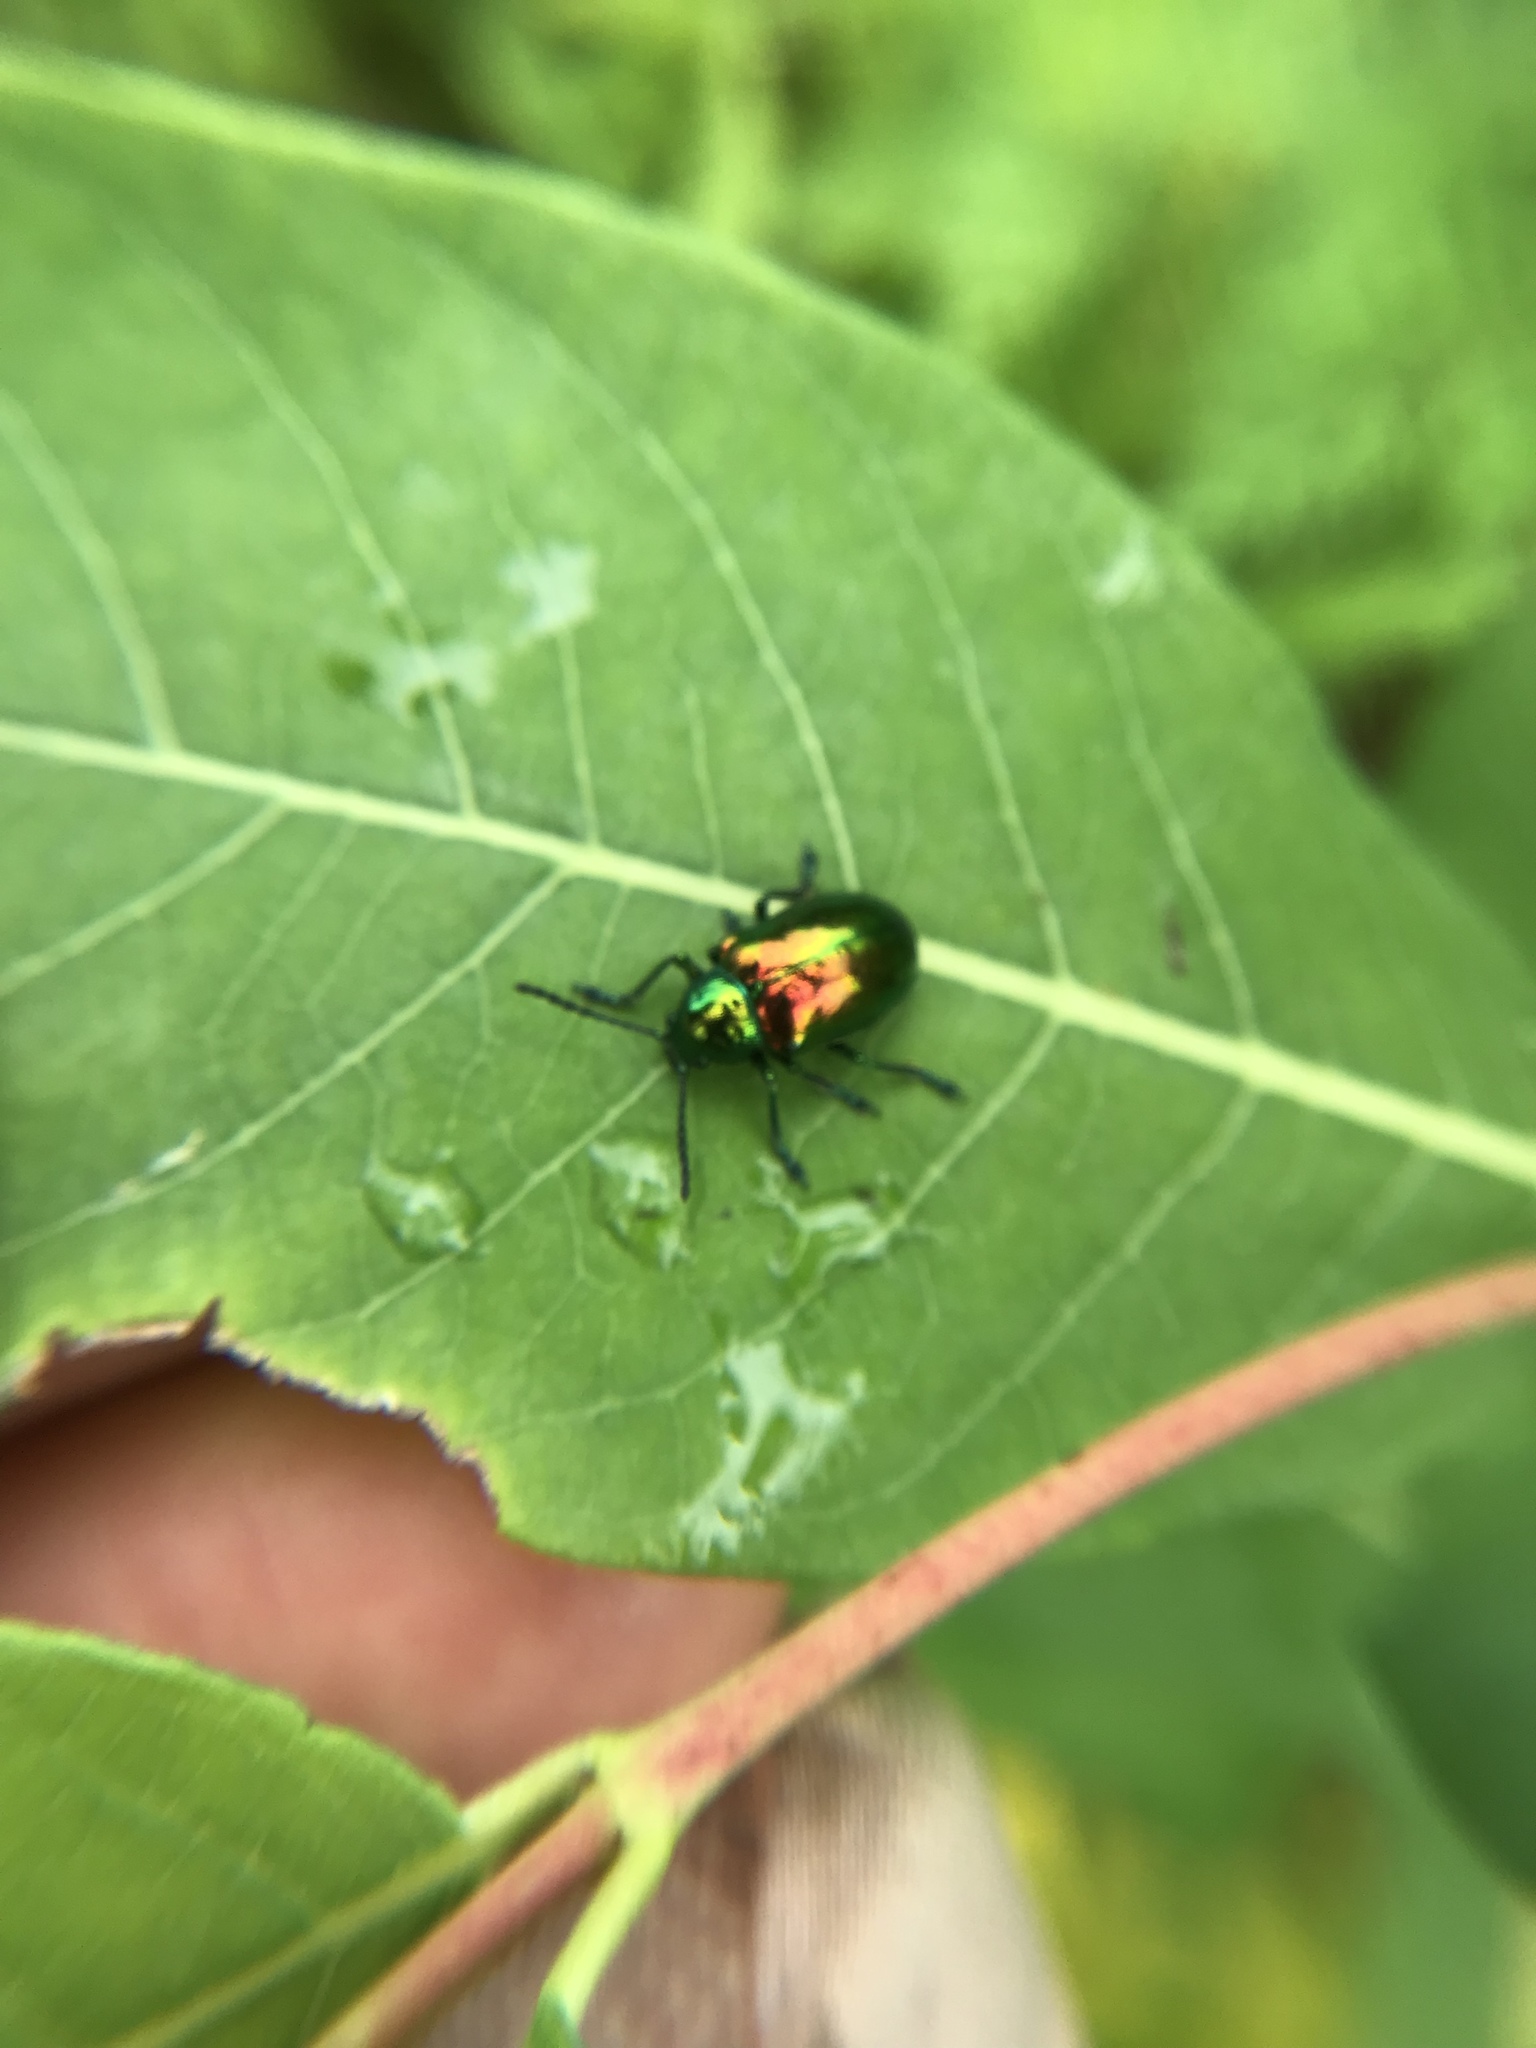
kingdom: Animalia
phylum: Arthropoda
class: Insecta
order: Coleoptera
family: Chrysomelidae
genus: Chrysochus
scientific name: Chrysochus auratus
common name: Dogbane leaf beetle
